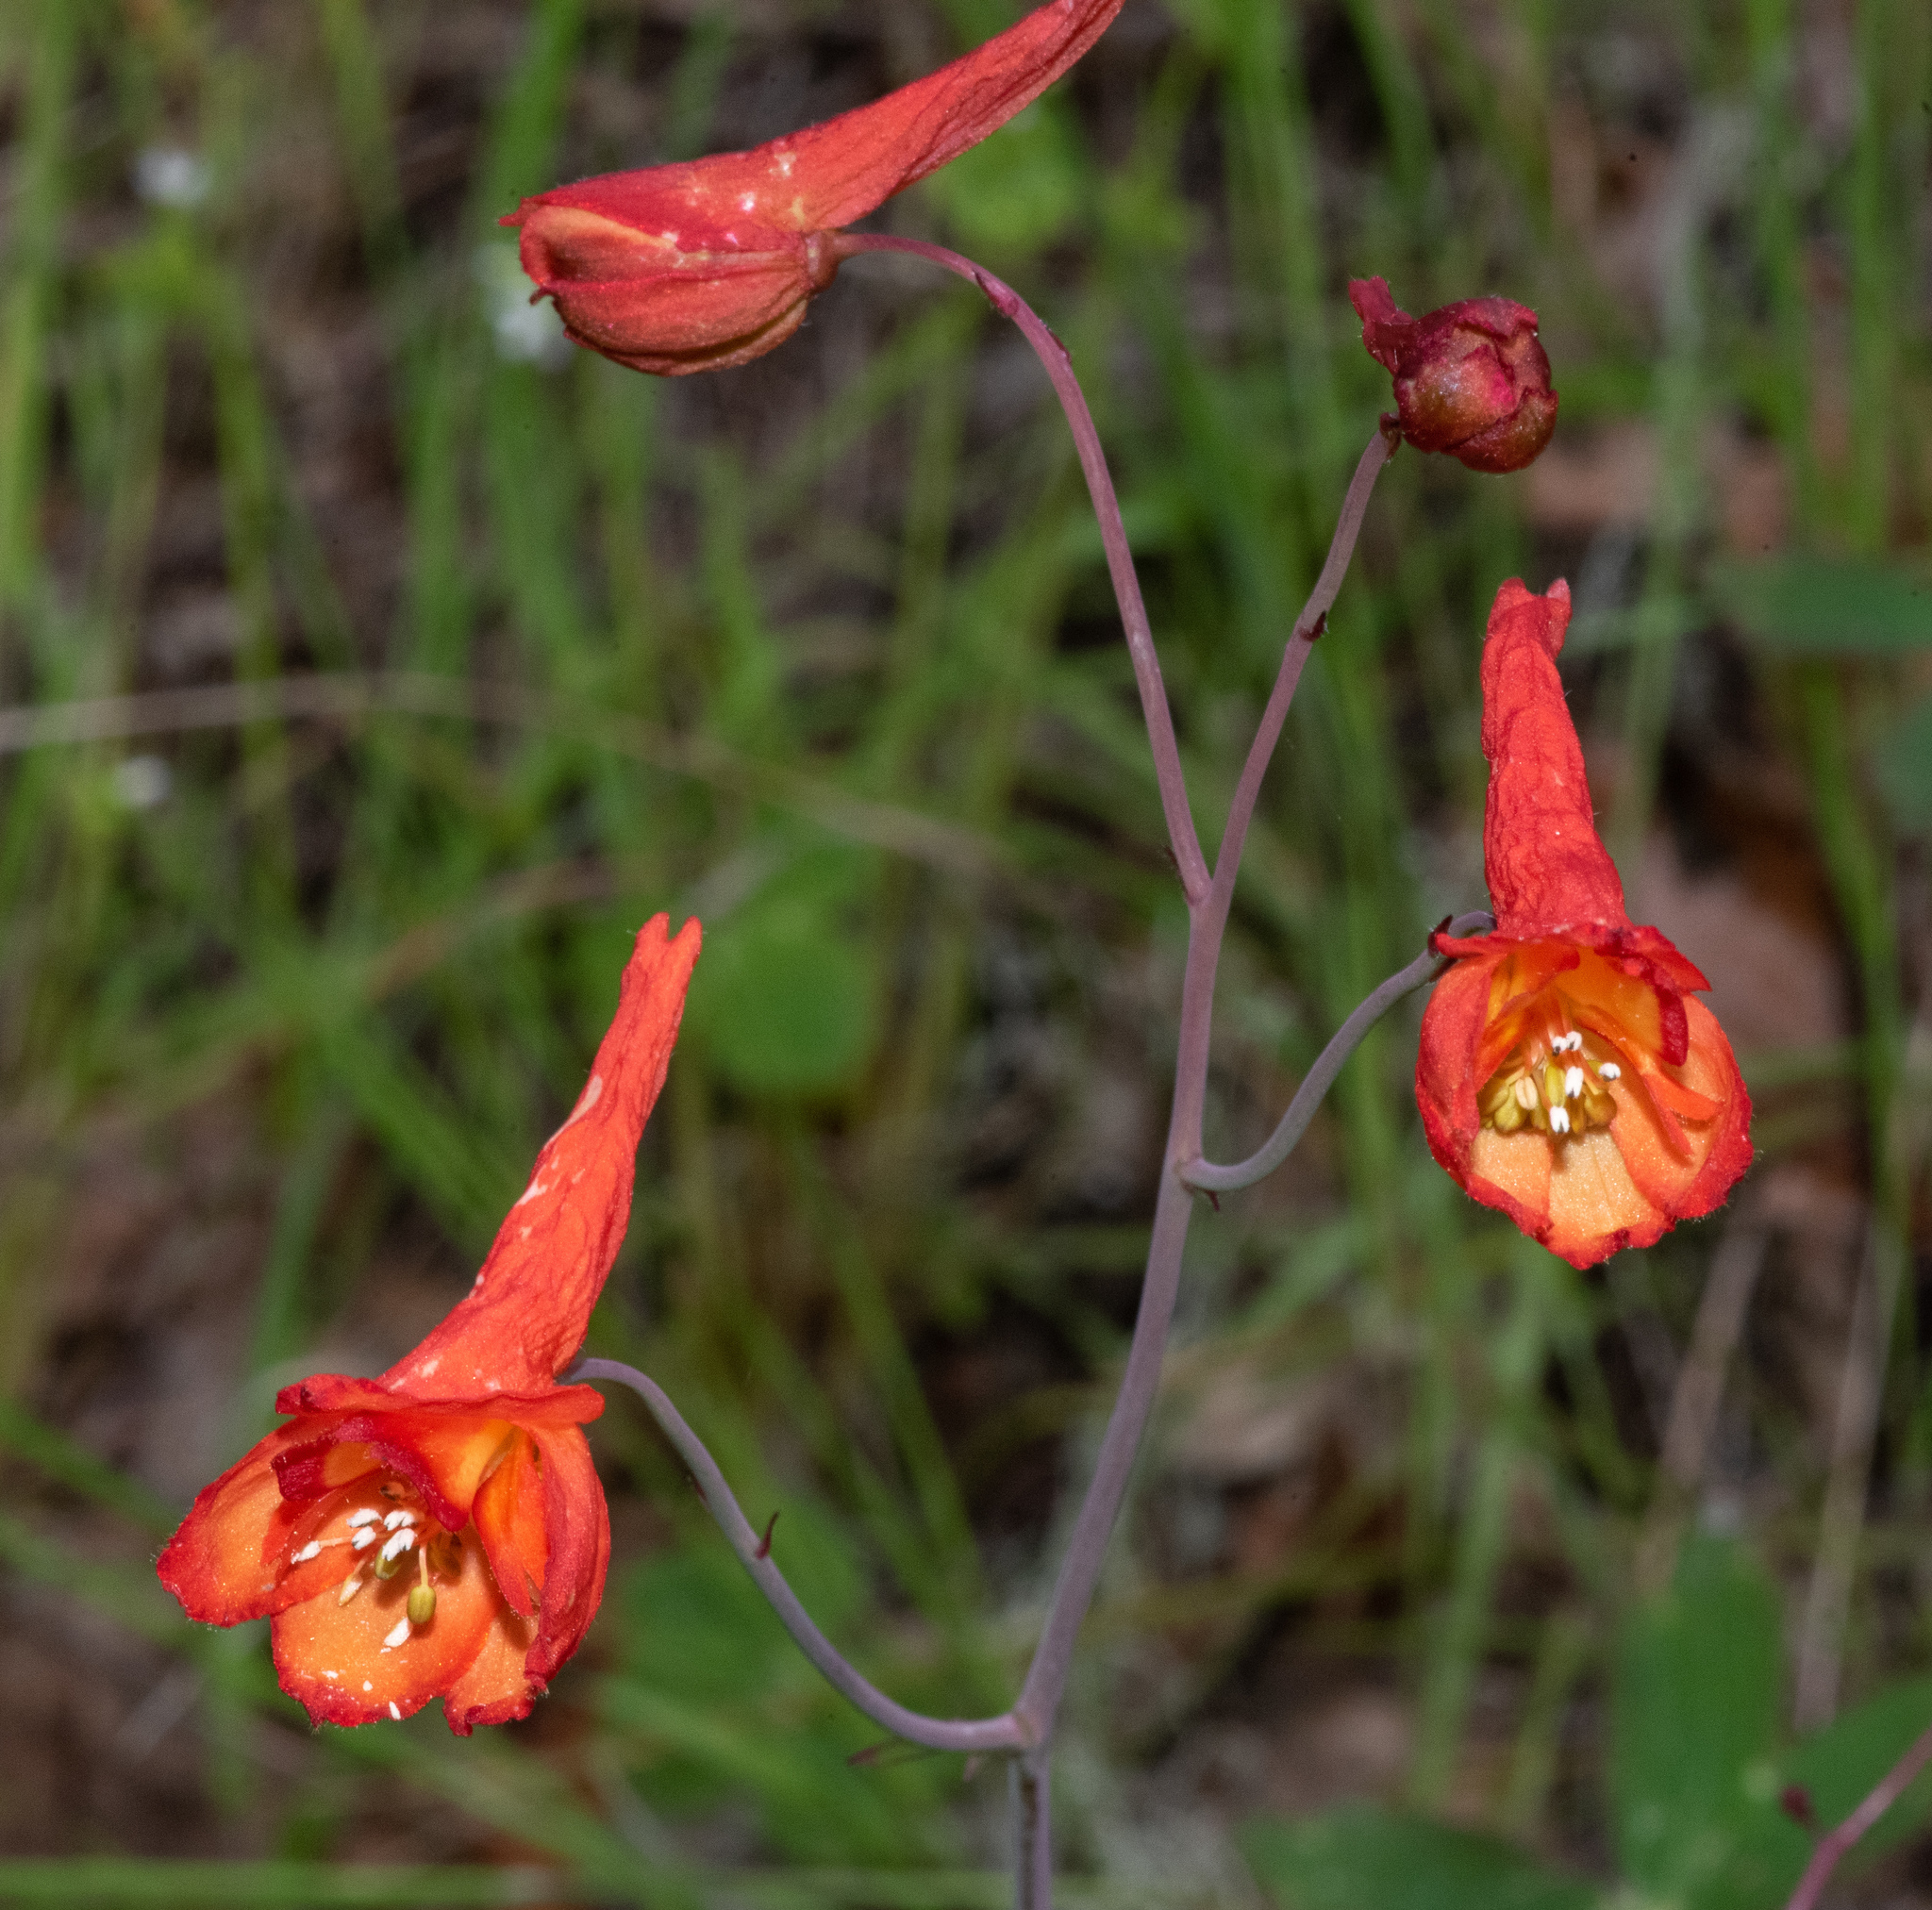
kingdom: Plantae
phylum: Tracheophyta
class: Magnoliopsida
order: Ranunculales
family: Ranunculaceae
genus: Delphinium
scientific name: Delphinium nudicaule
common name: Red larkspur
